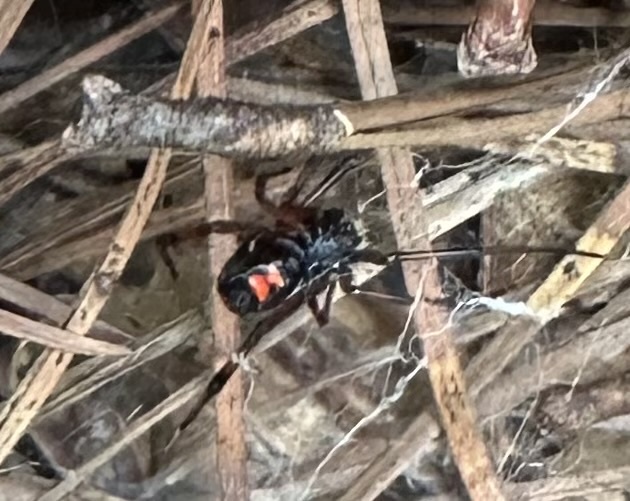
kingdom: Animalia
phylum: Arthropoda
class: Arachnida
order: Araneae
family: Theridiidae
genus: Latrodectus
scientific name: Latrodectus mactans
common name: Cobweb spiders
